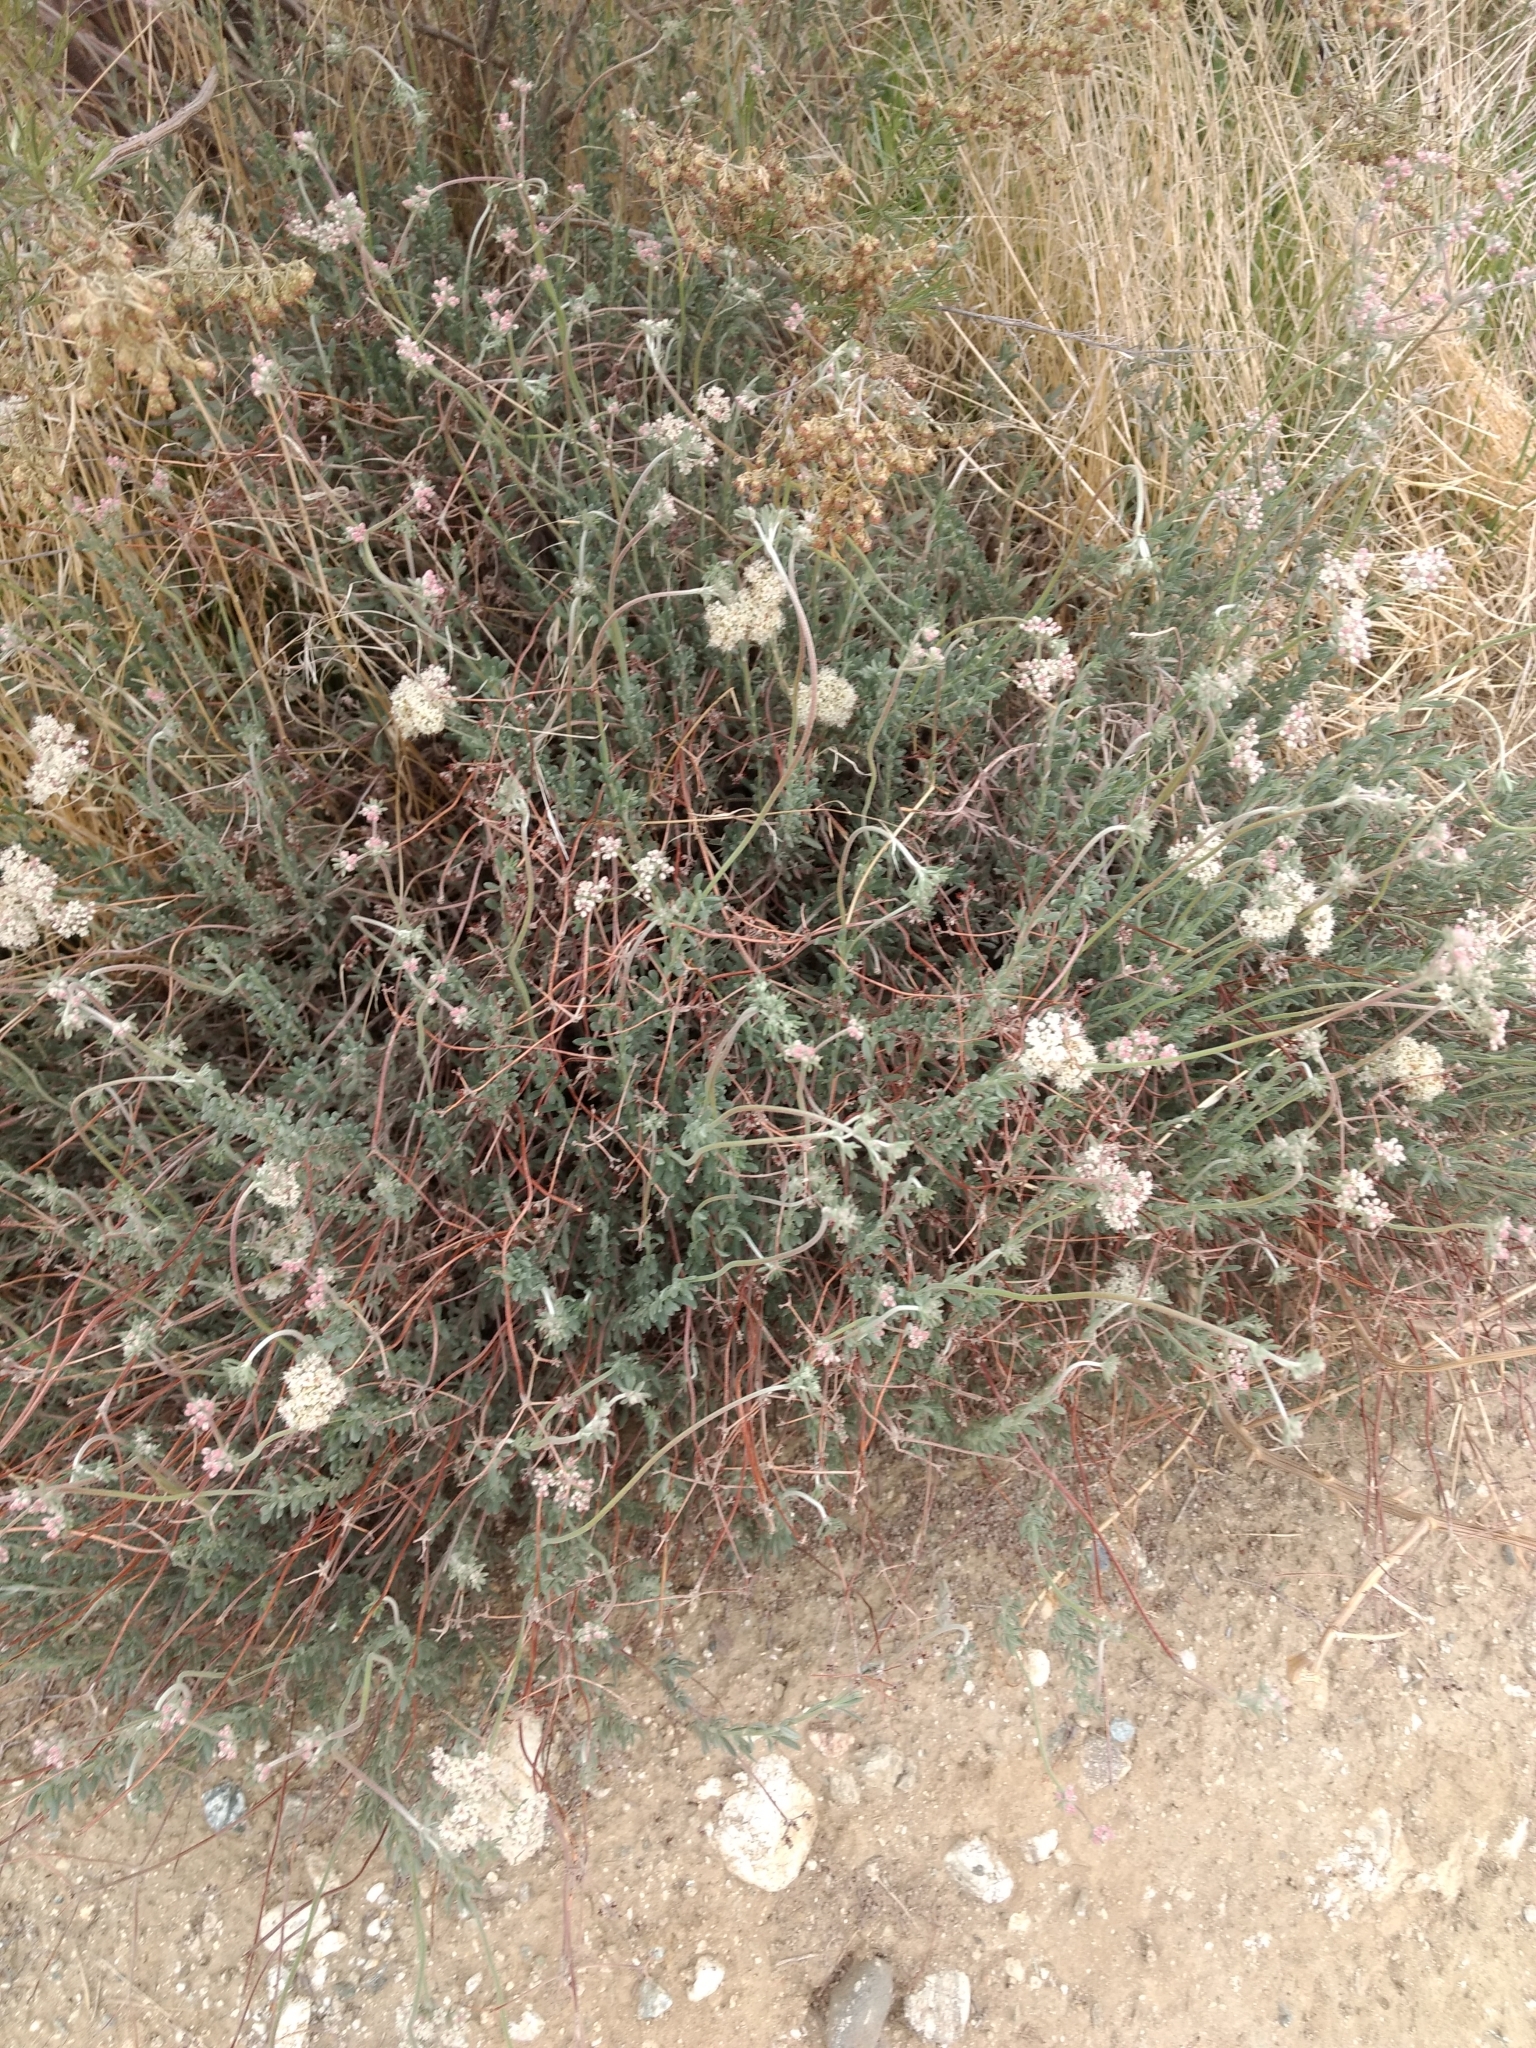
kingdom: Plantae
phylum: Tracheophyta
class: Magnoliopsida
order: Caryophyllales
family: Polygonaceae
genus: Eriogonum
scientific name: Eriogonum fasciculatum
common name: California wild buckwheat
